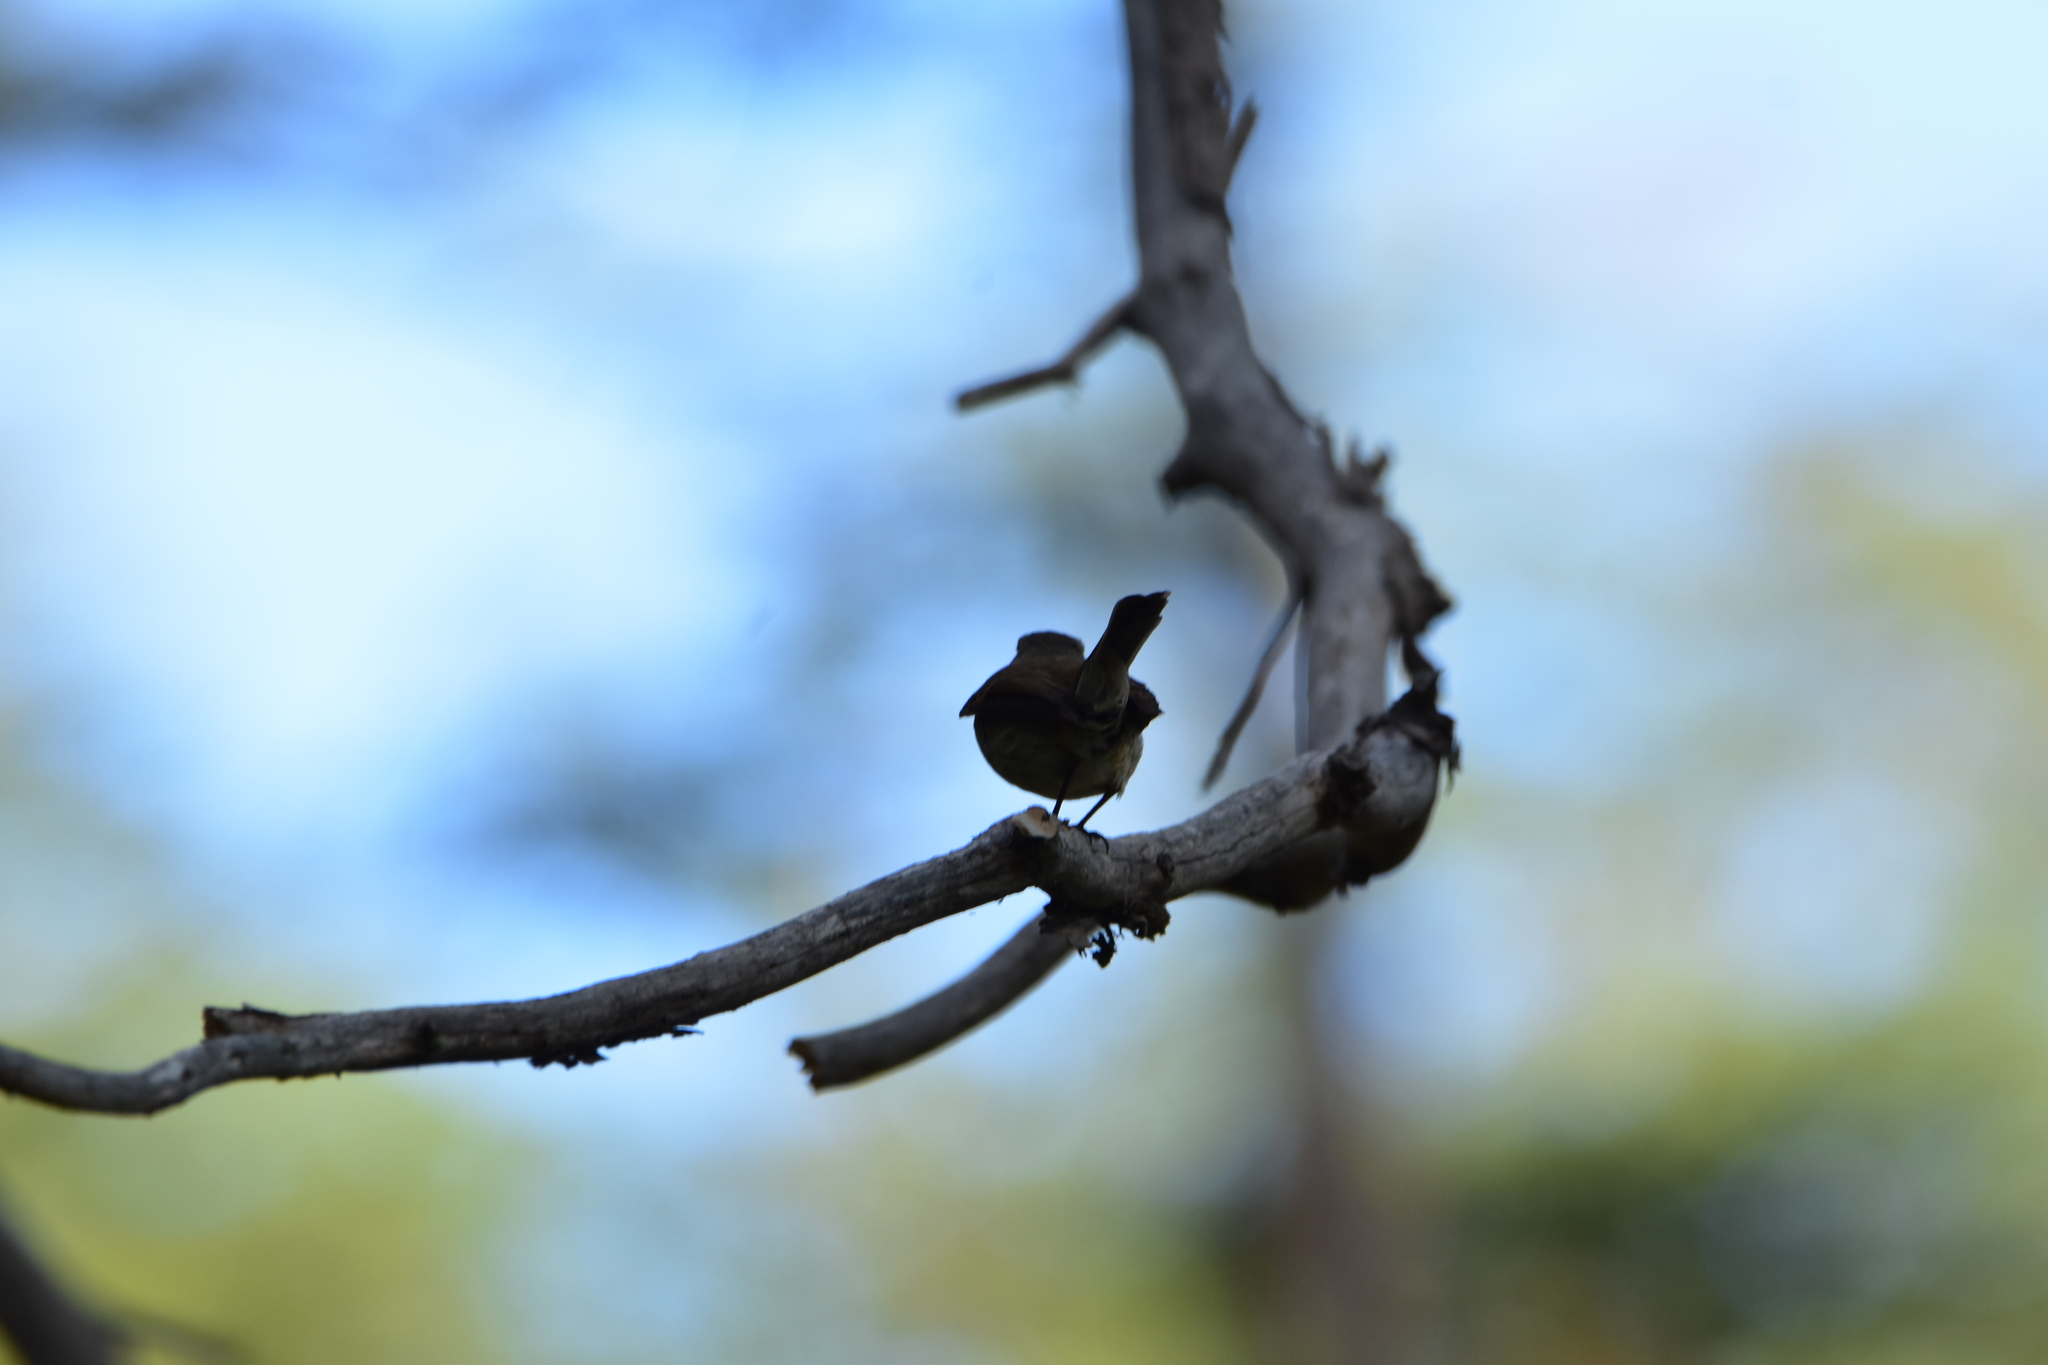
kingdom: Animalia
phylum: Chordata
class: Aves
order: Passeriformes
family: Tyrannidae
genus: Colorhamphus
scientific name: Colorhamphus parvirostris
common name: Patagonian tyrant
